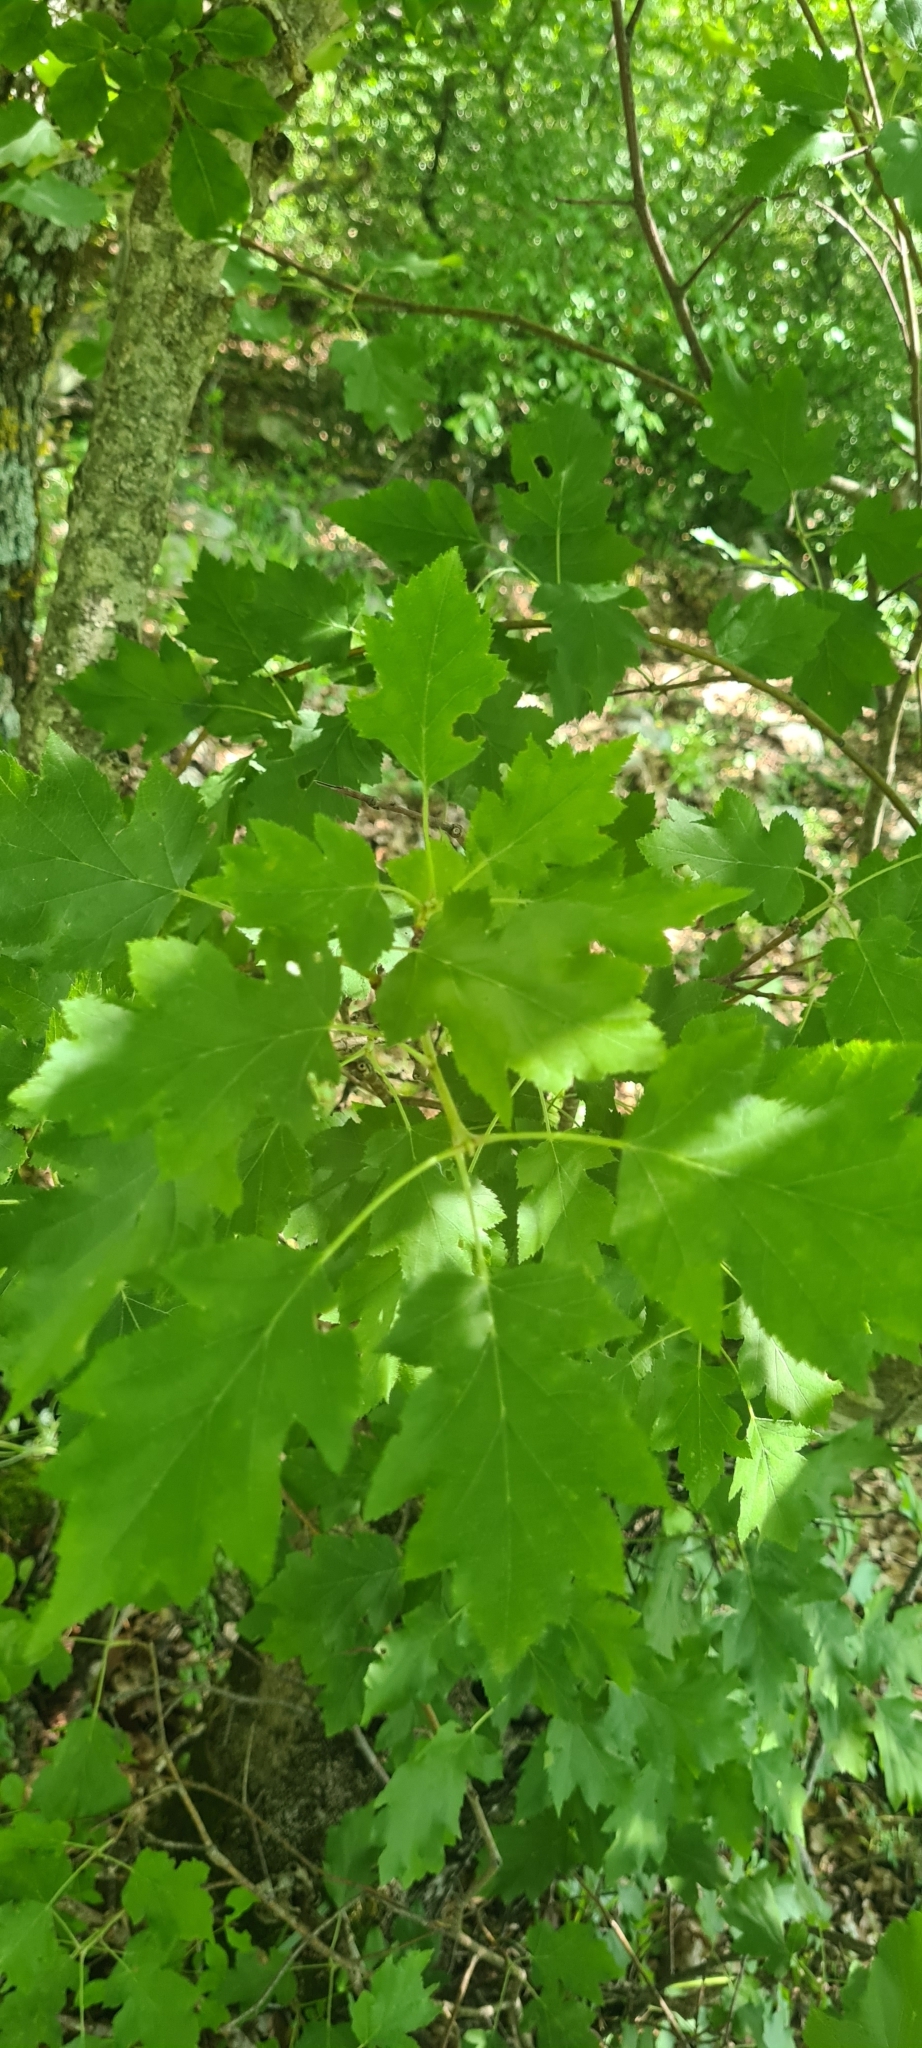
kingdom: Plantae
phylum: Tracheophyta
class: Magnoliopsida
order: Rosales
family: Rosaceae
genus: Torminalis
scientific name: Torminalis glaberrima
